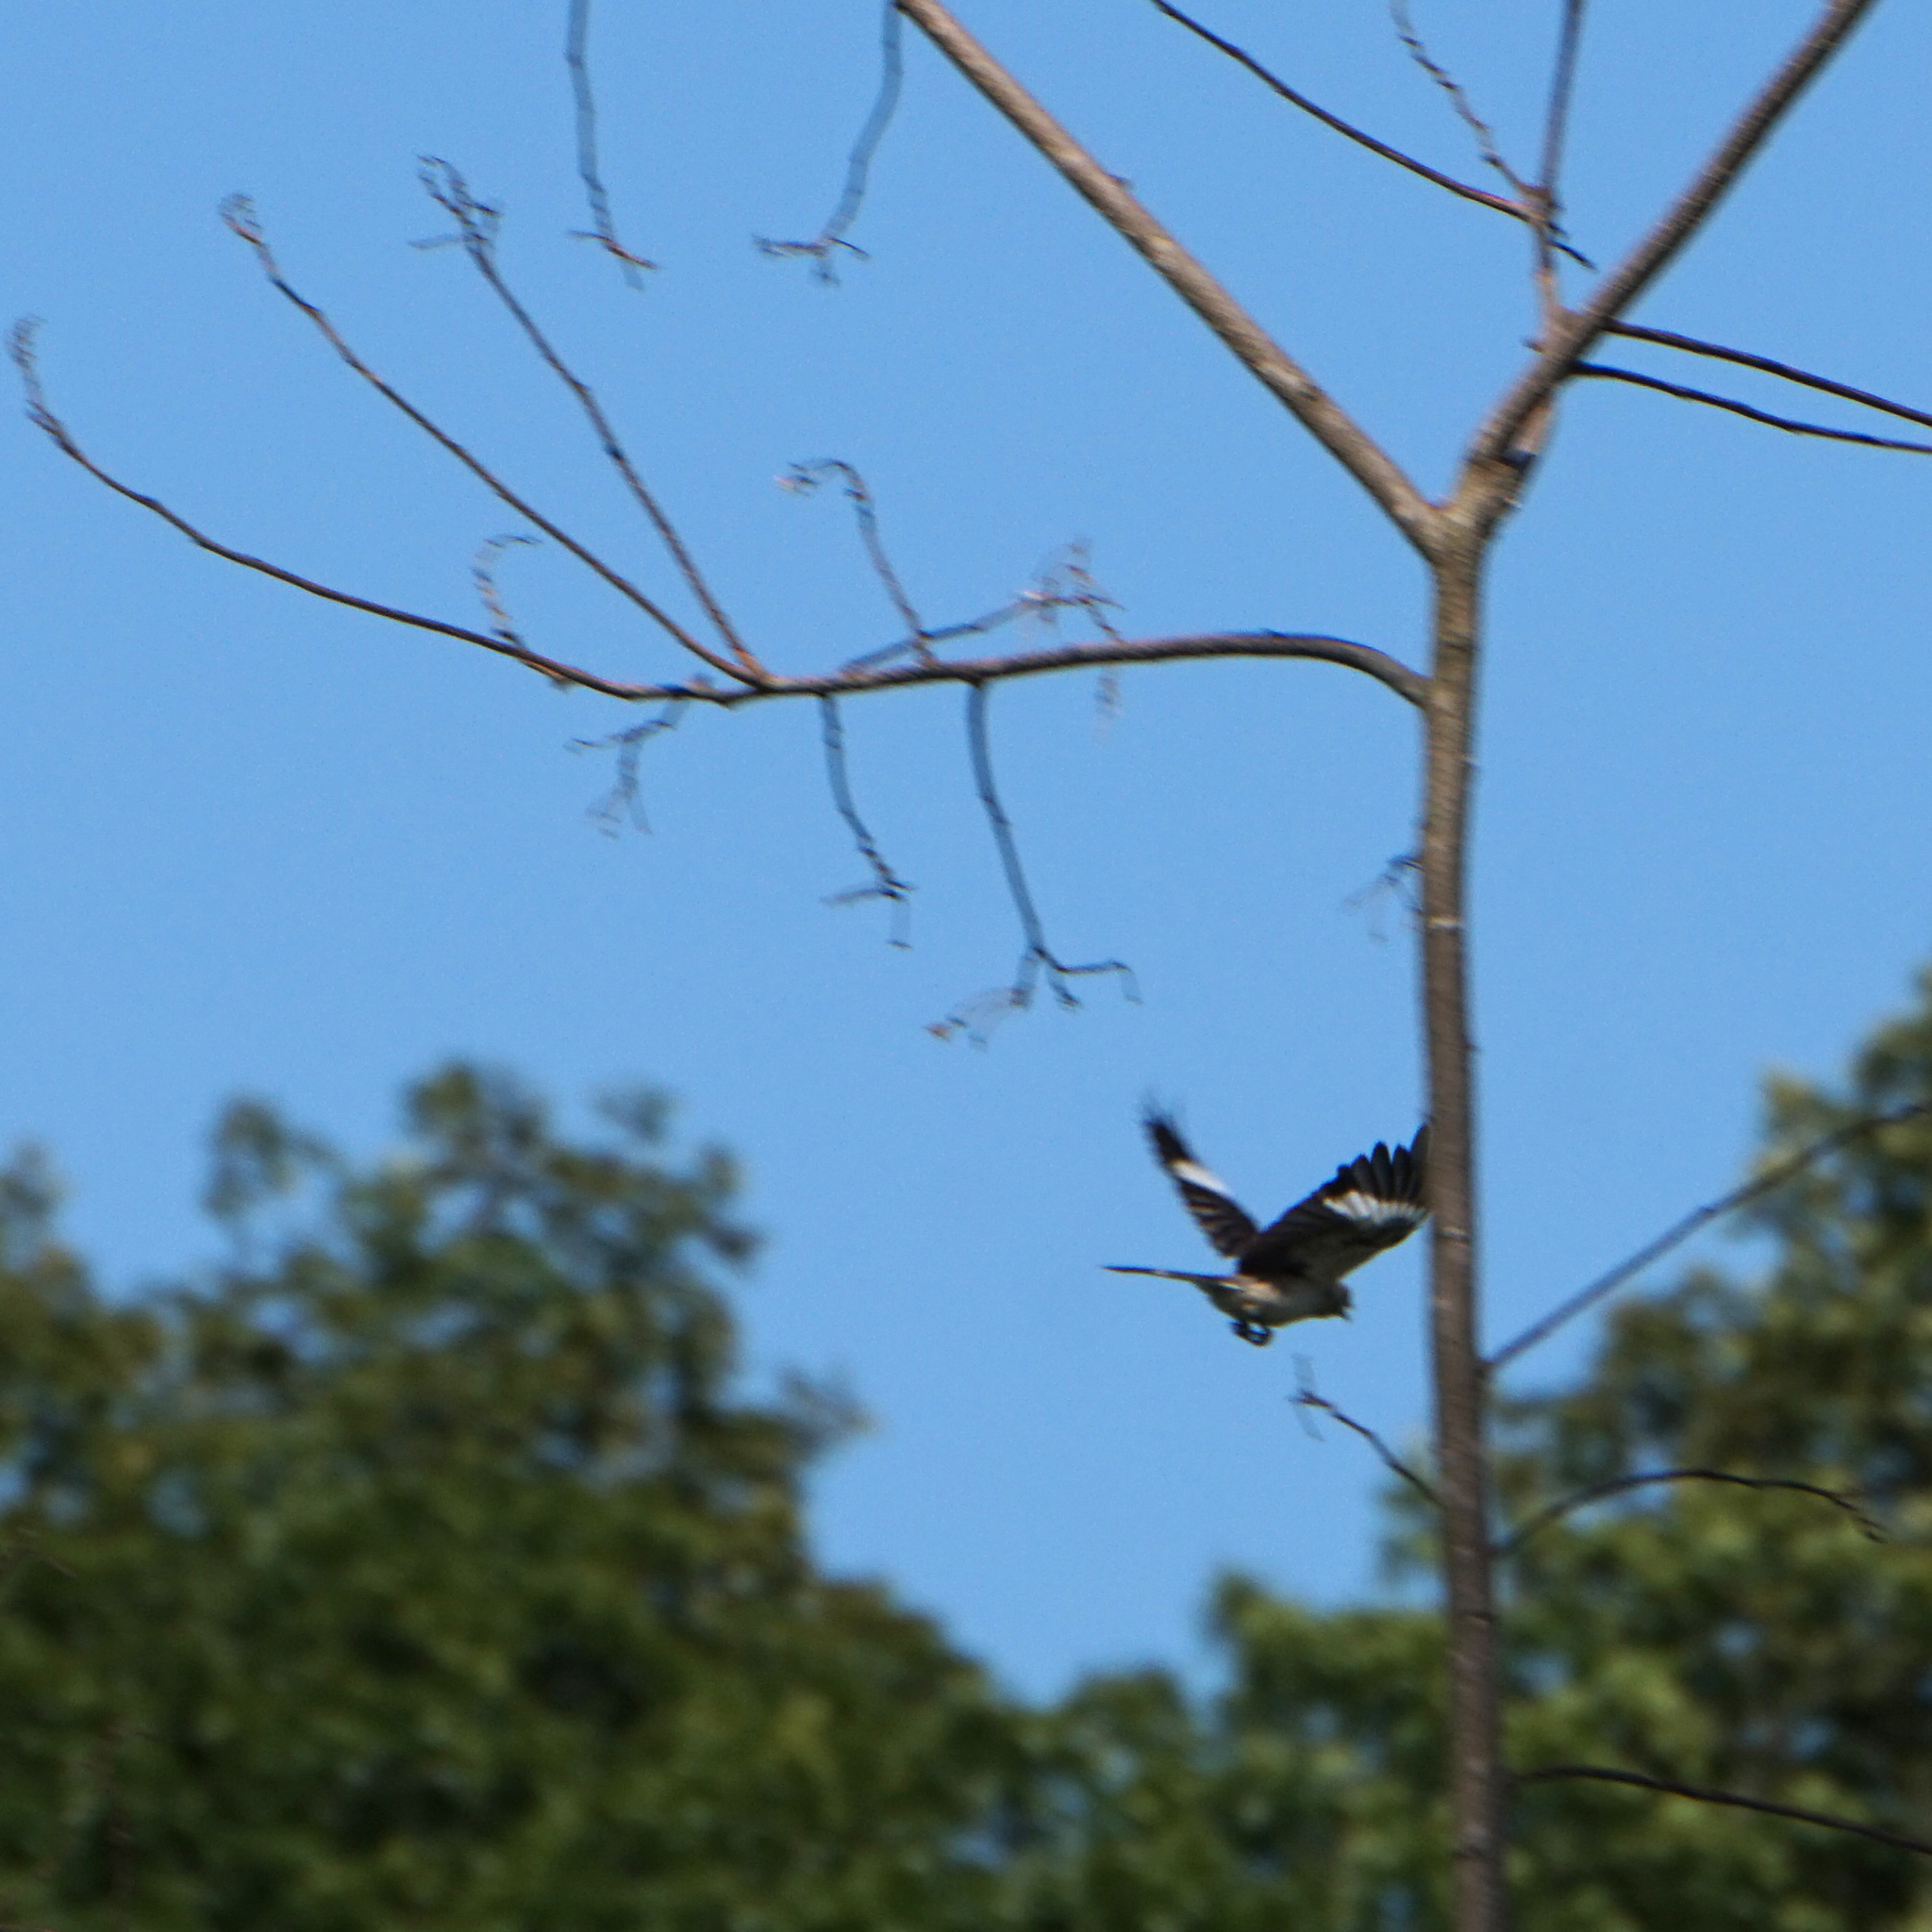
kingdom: Animalia
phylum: Chordata
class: Aves
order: Passeriformes
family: Mimidae
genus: Mimus
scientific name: Mimus polyglottos
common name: Northern mockingbird
